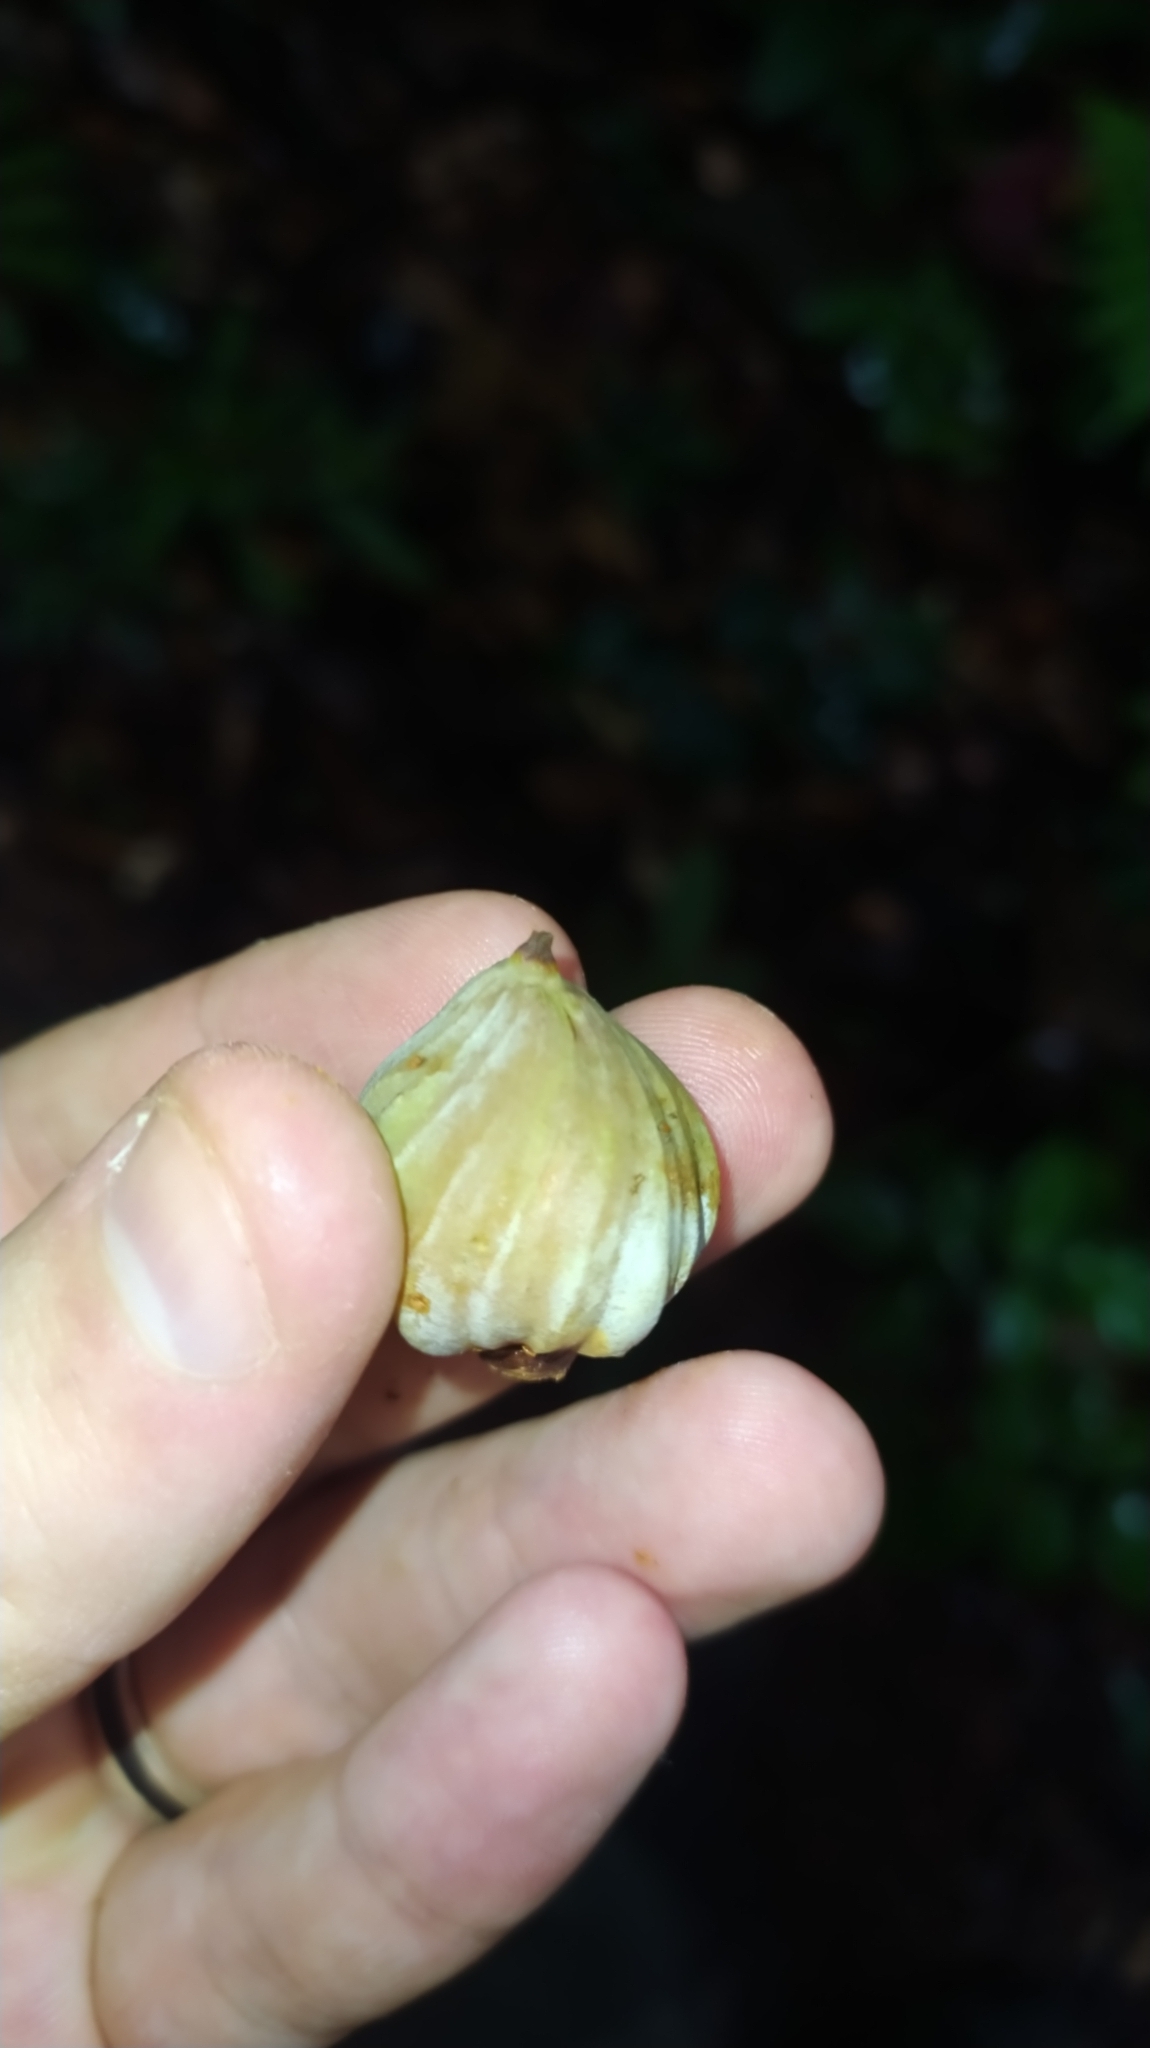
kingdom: Plantae
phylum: Tracheophyta
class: Magnoliopsida
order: Malpighiales
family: Clusiaceae
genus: Moronobea
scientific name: Moronobea coccinea
